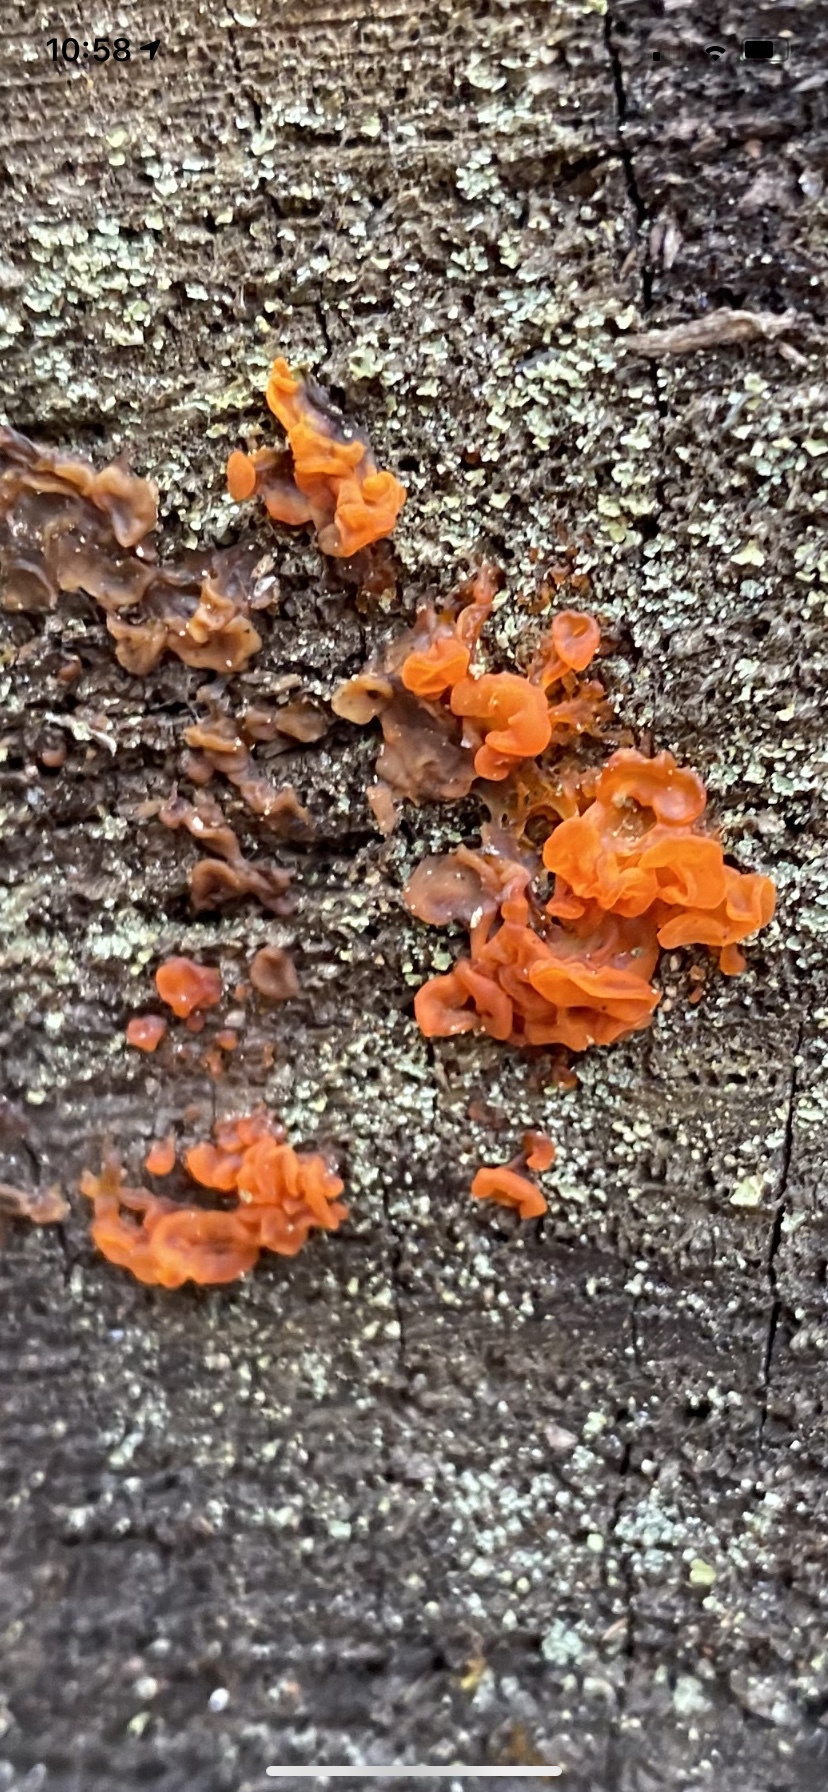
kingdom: Fungi
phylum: Basidiomycota
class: Dacrymycetes
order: Dacrymycetales
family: Dacrymycetaceae
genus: Dacrymyces
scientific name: Dacrymyces chrysospermus
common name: Orange jelly spot
